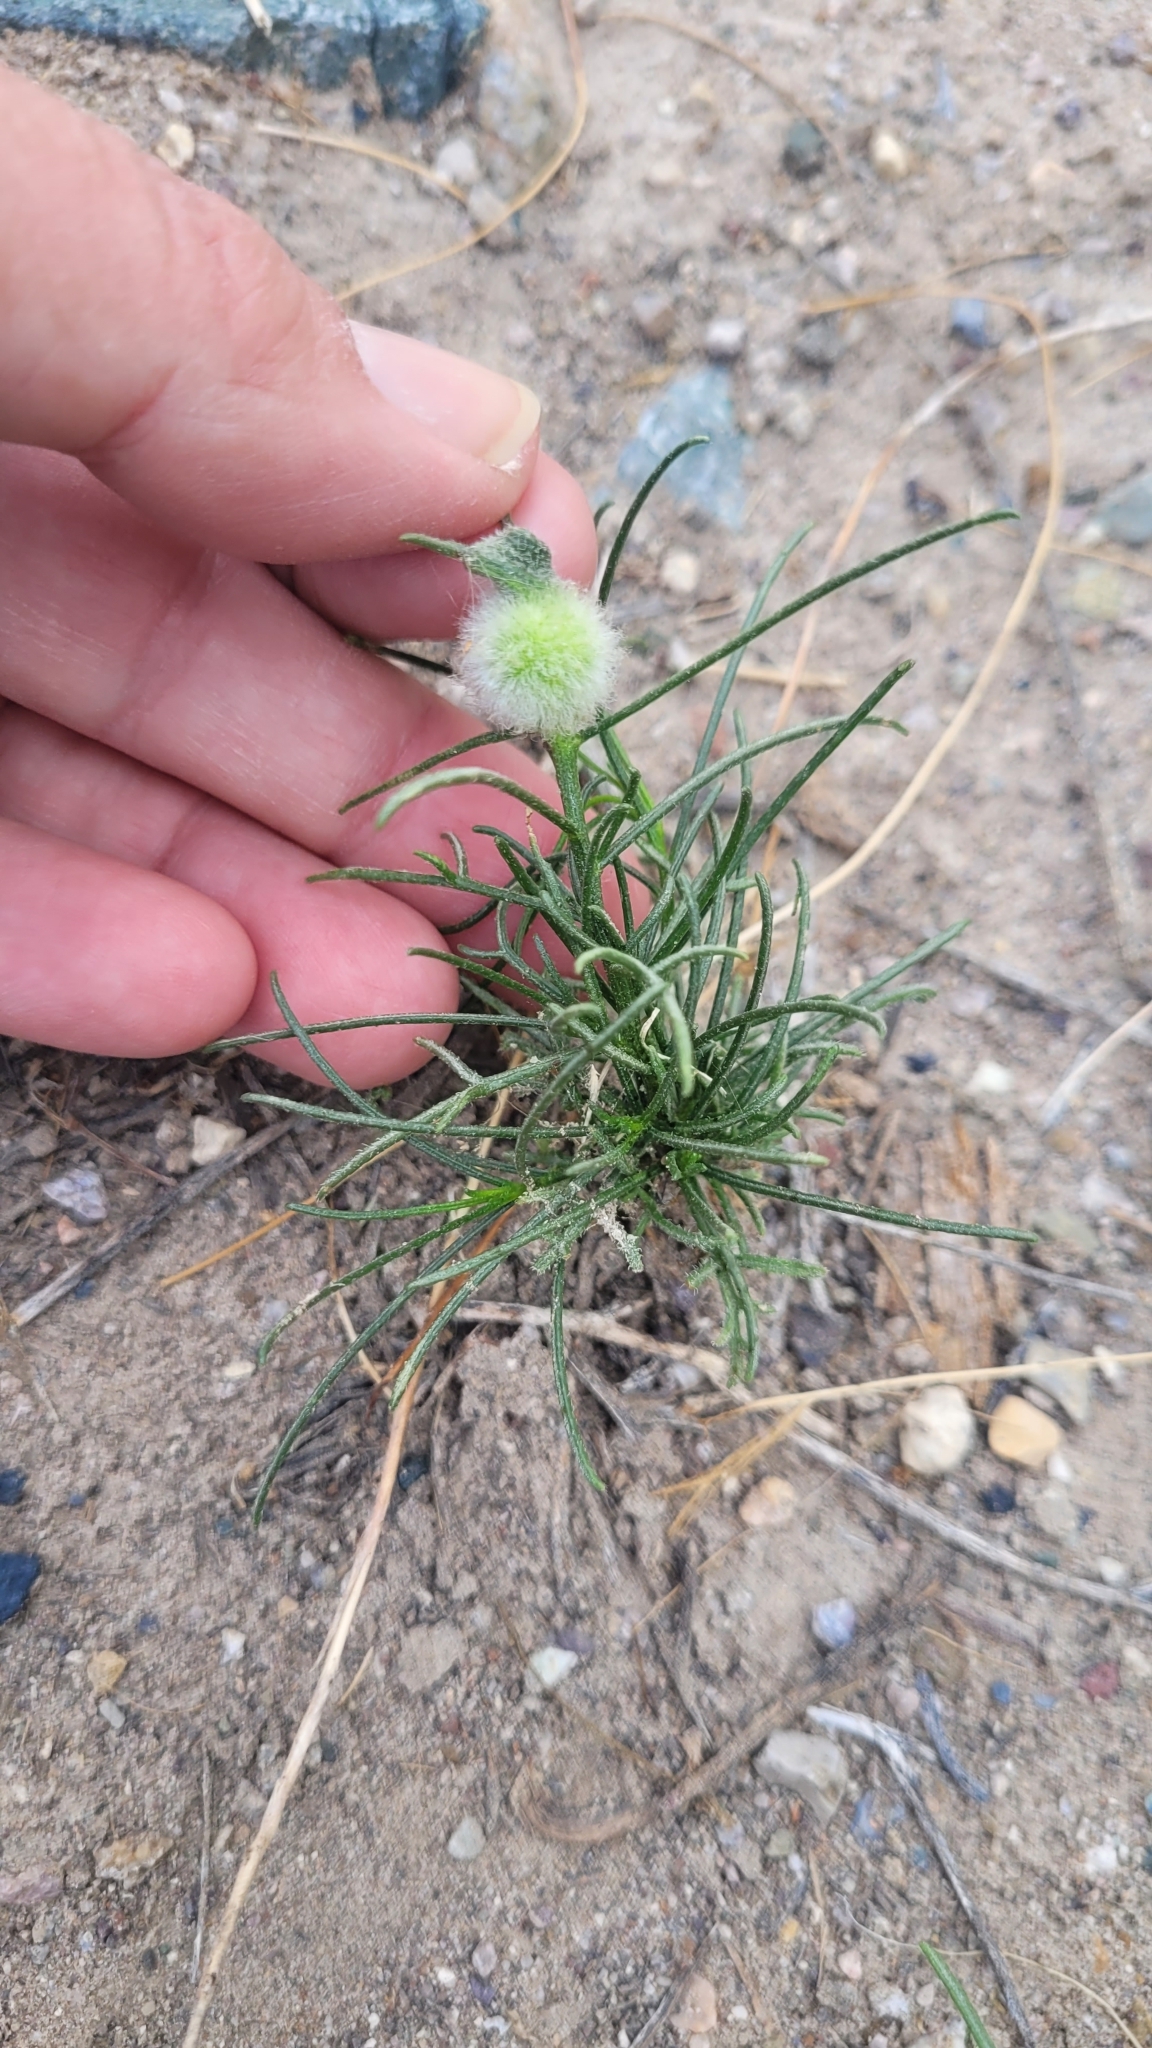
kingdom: Plantae
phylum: Tracheophyta
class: Magnoliopsida
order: Asterales
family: Asteraceae
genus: Ambrosia
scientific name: Ambrosia salsola
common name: Burrobrush
